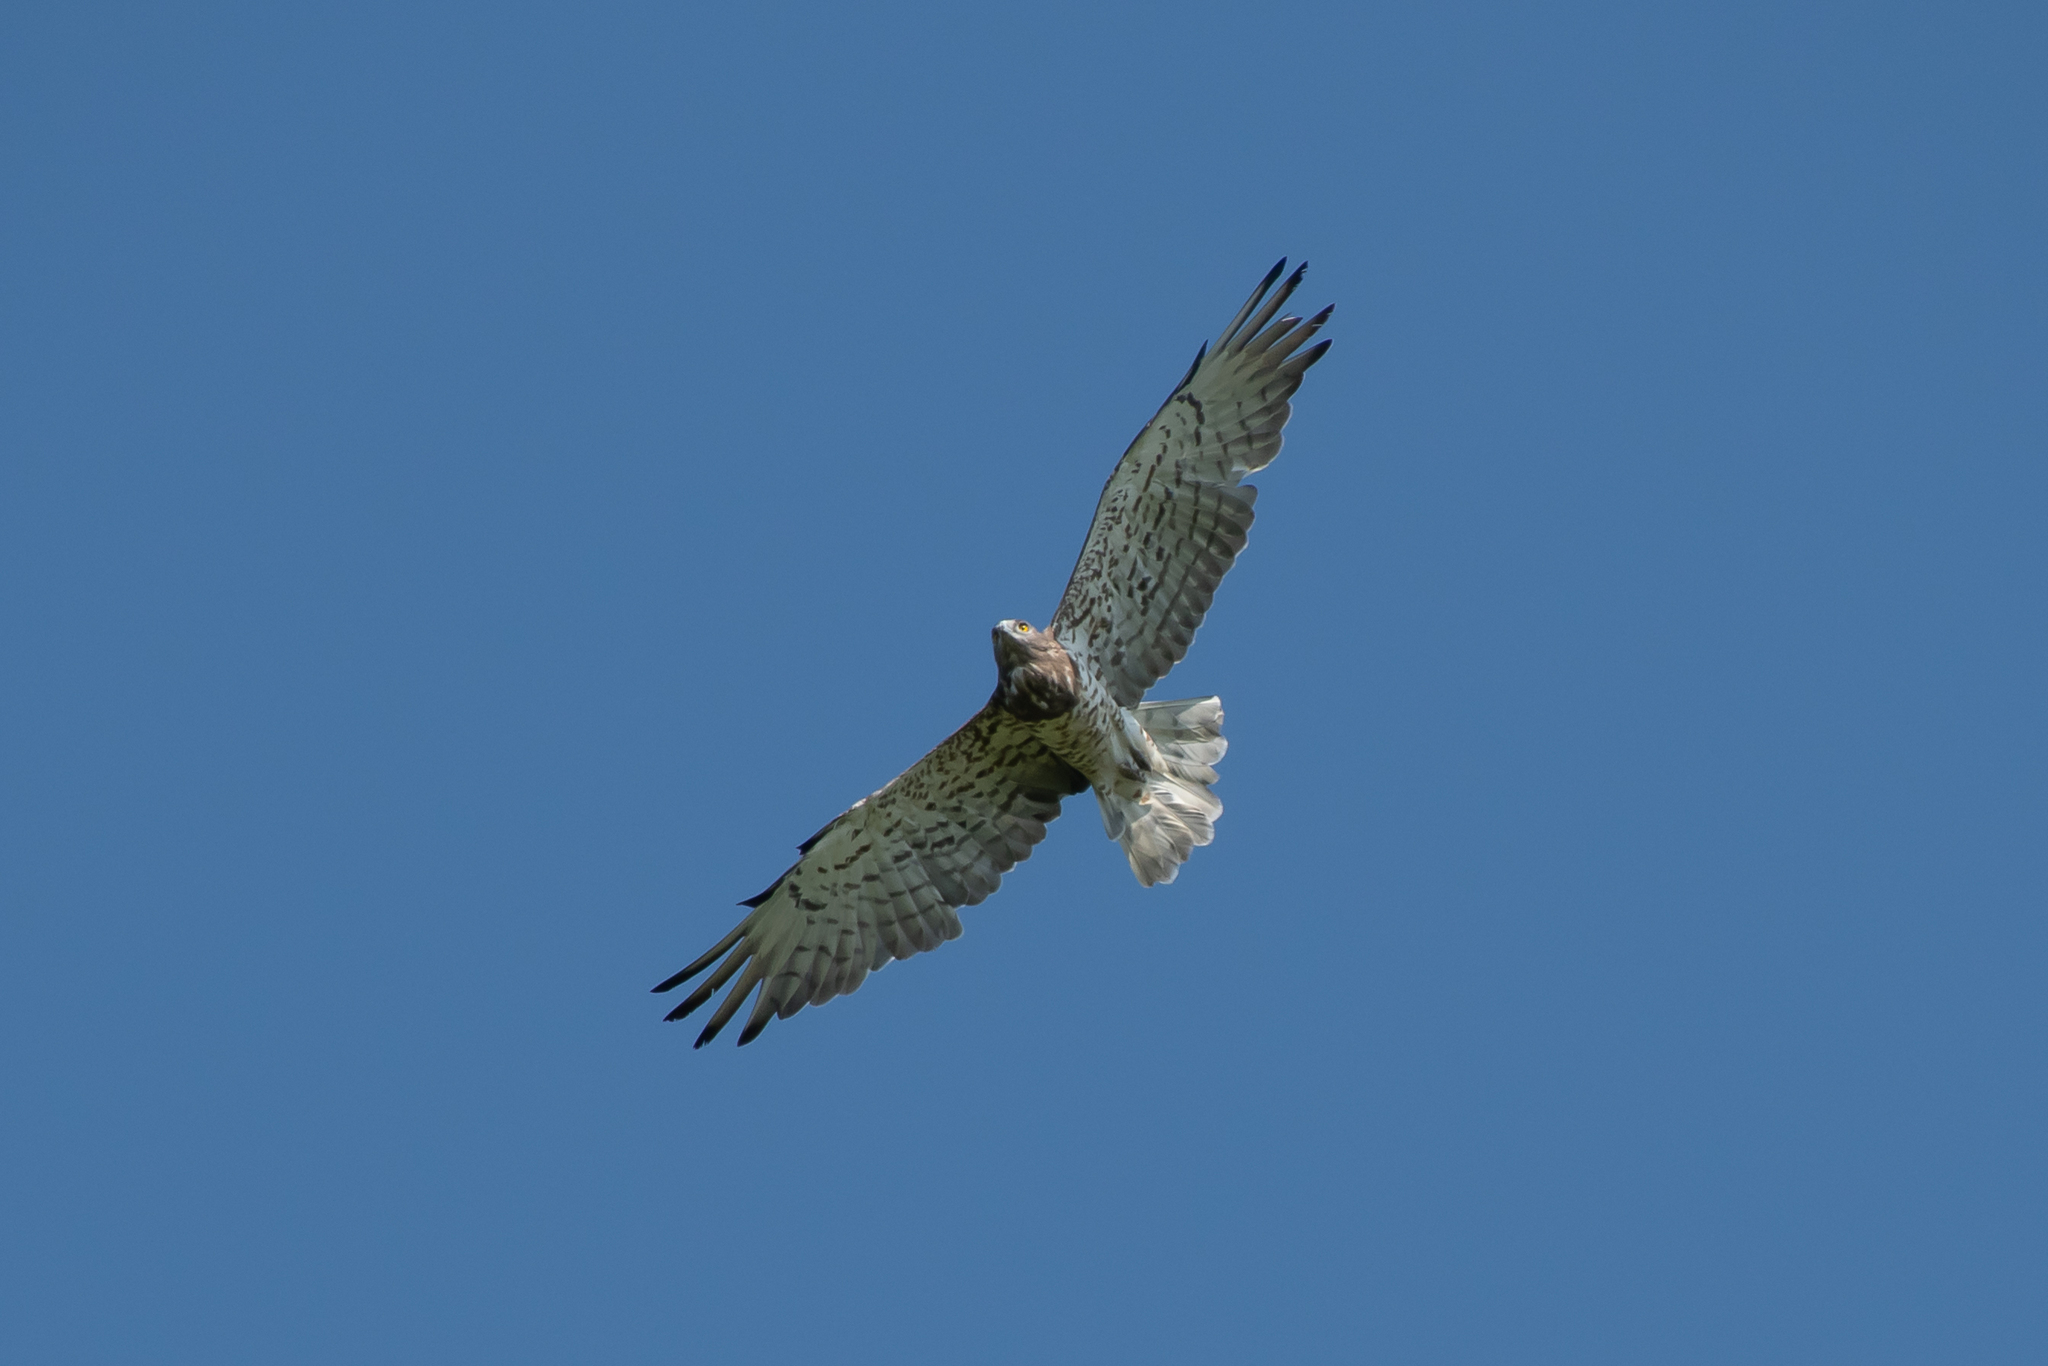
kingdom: Animalia
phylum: Chordata
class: Aves
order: Accipitriformes
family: Accipitridae
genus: Circaetus
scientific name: Circaetus gallicus
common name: Short-toed snake eagle
